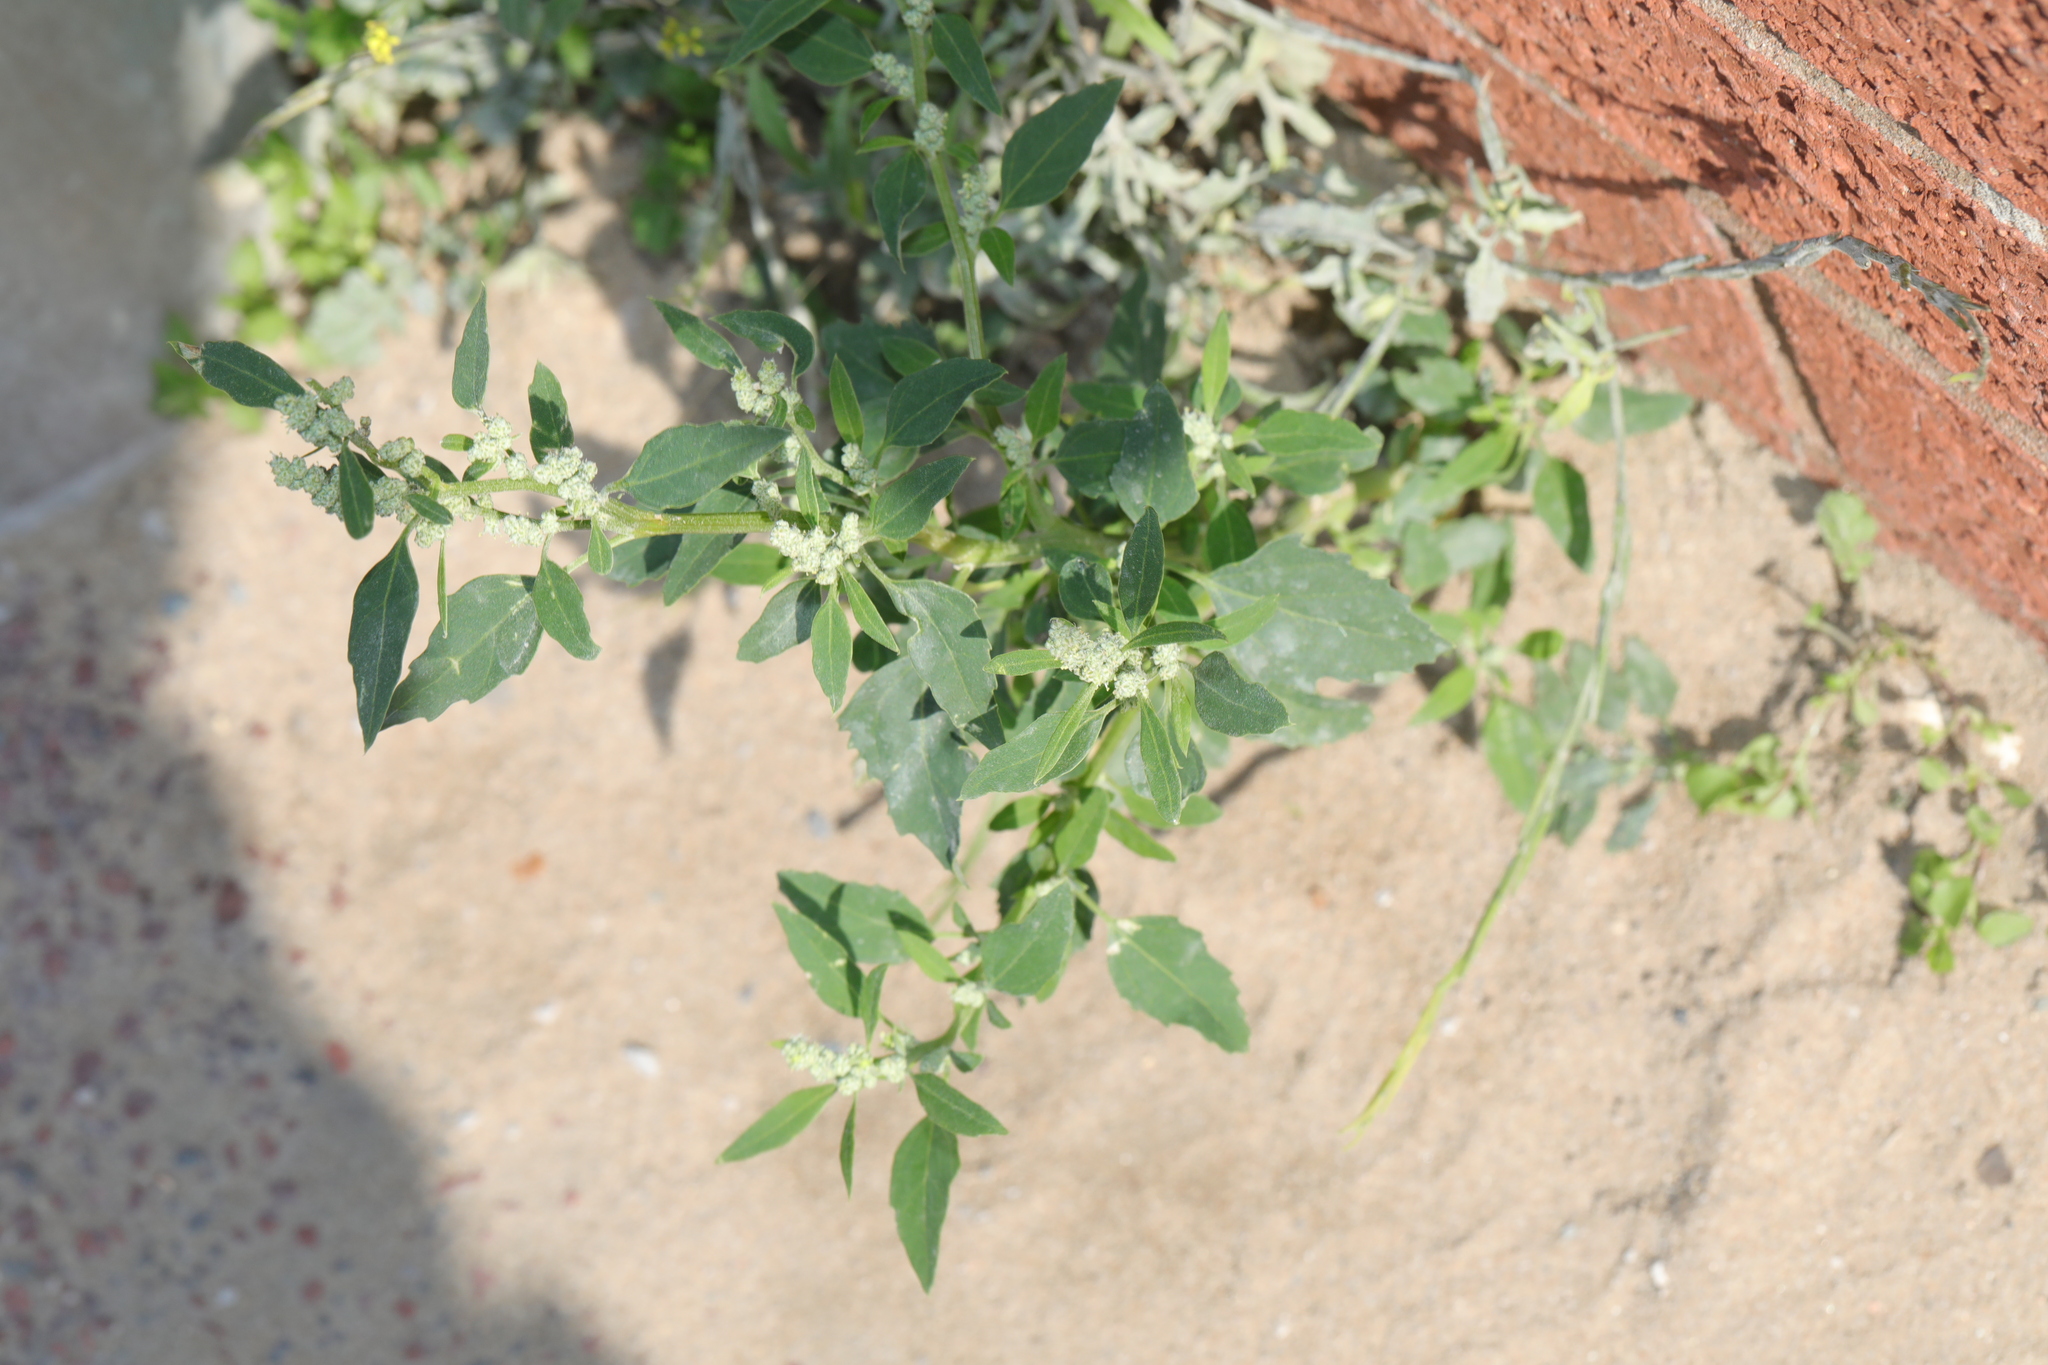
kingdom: Plantae
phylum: Tracheophyta
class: Magnoliopsida
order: Caryophyllales
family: Amaranthaceae
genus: Chenopodium
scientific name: Chenopodium album
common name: Fat-hen
